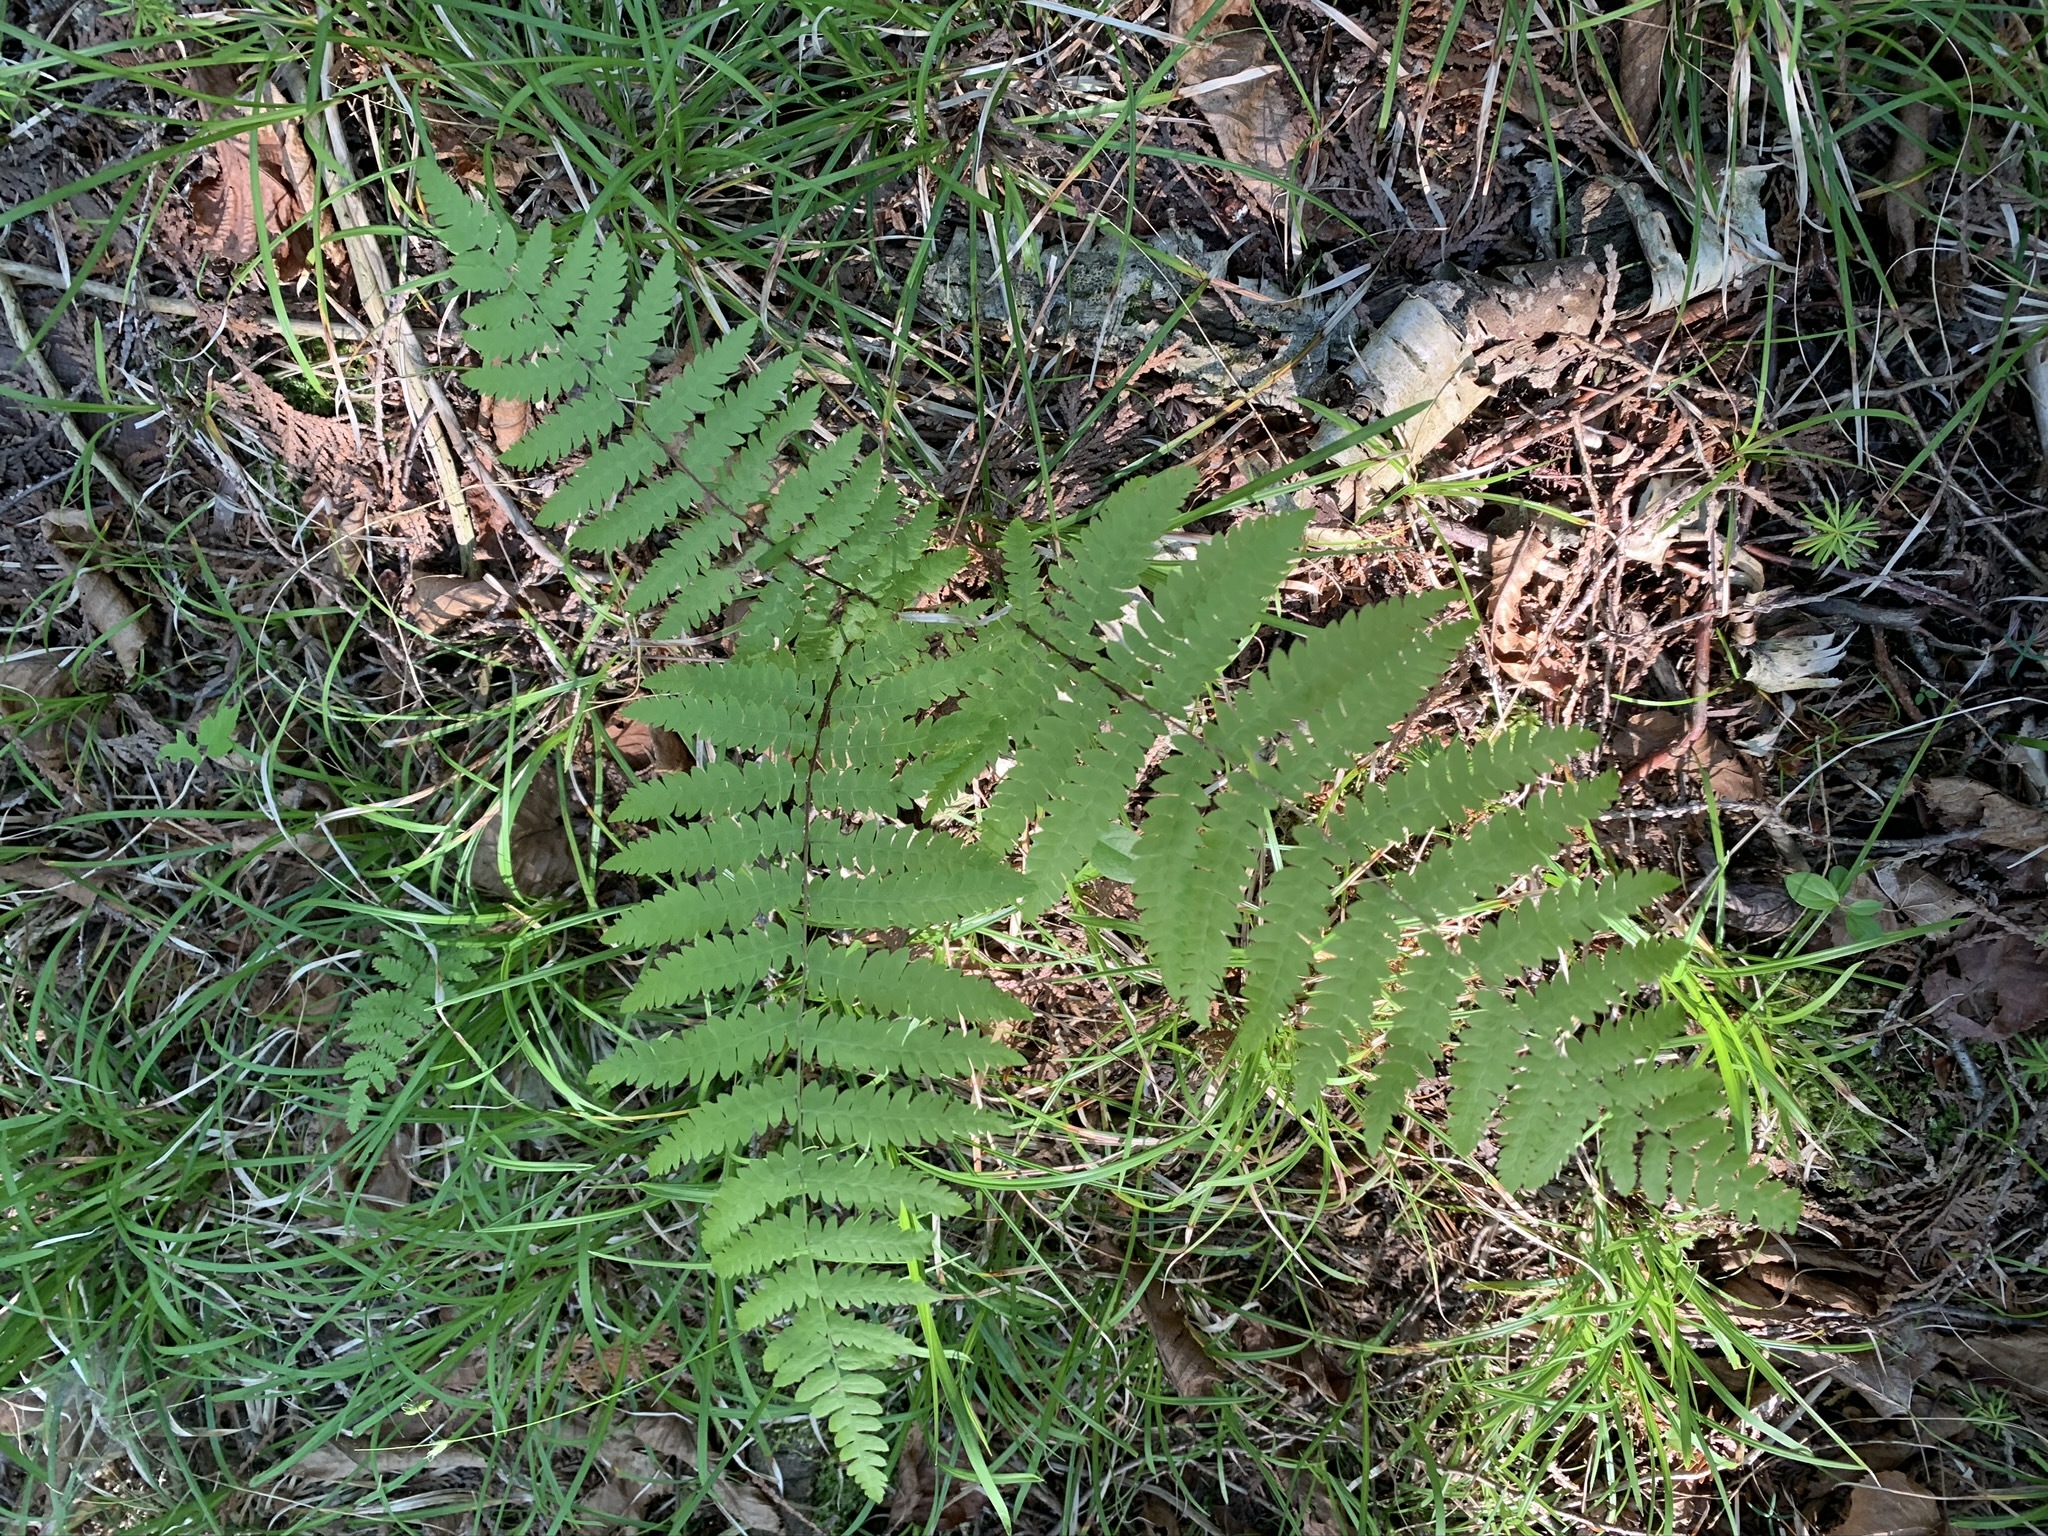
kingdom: Plantae
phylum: Tracheophyta
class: Polypodiopsida
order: Polypodiales
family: Thelypteridaceae
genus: Thelypteris
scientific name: Thelypteris palustris
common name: Marsh fern
